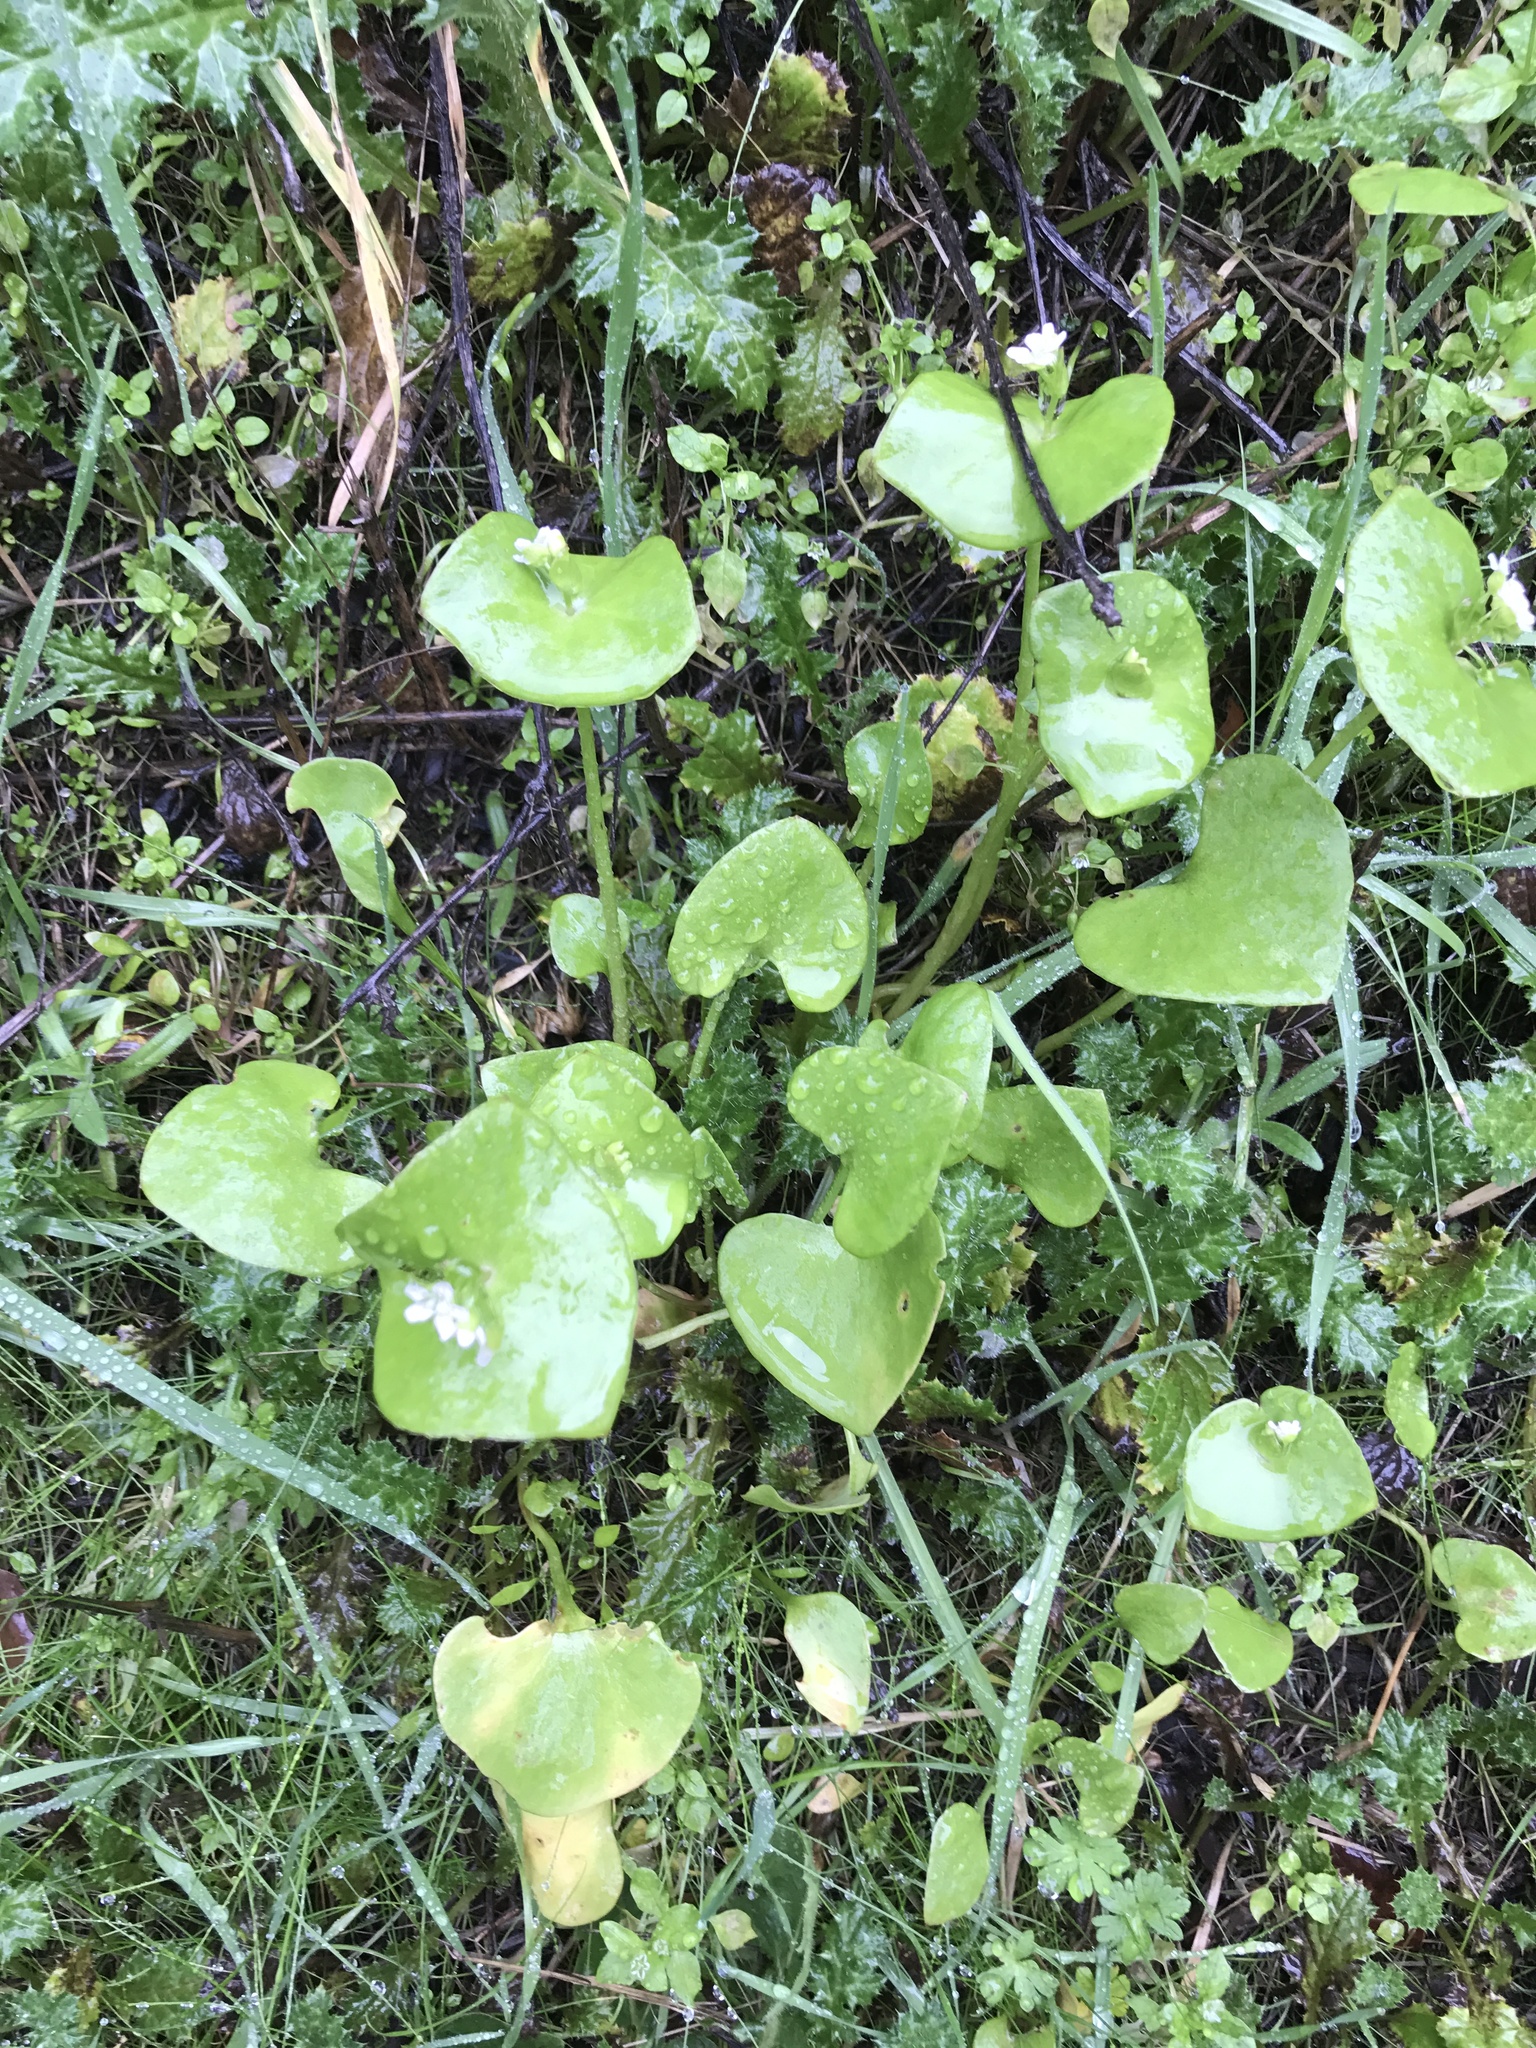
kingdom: Plantae
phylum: Tracheophyta
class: Magnoliopsida
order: Caryophyllales
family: Montiaceae
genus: Claytonia
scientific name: Claytonia perfoliata
